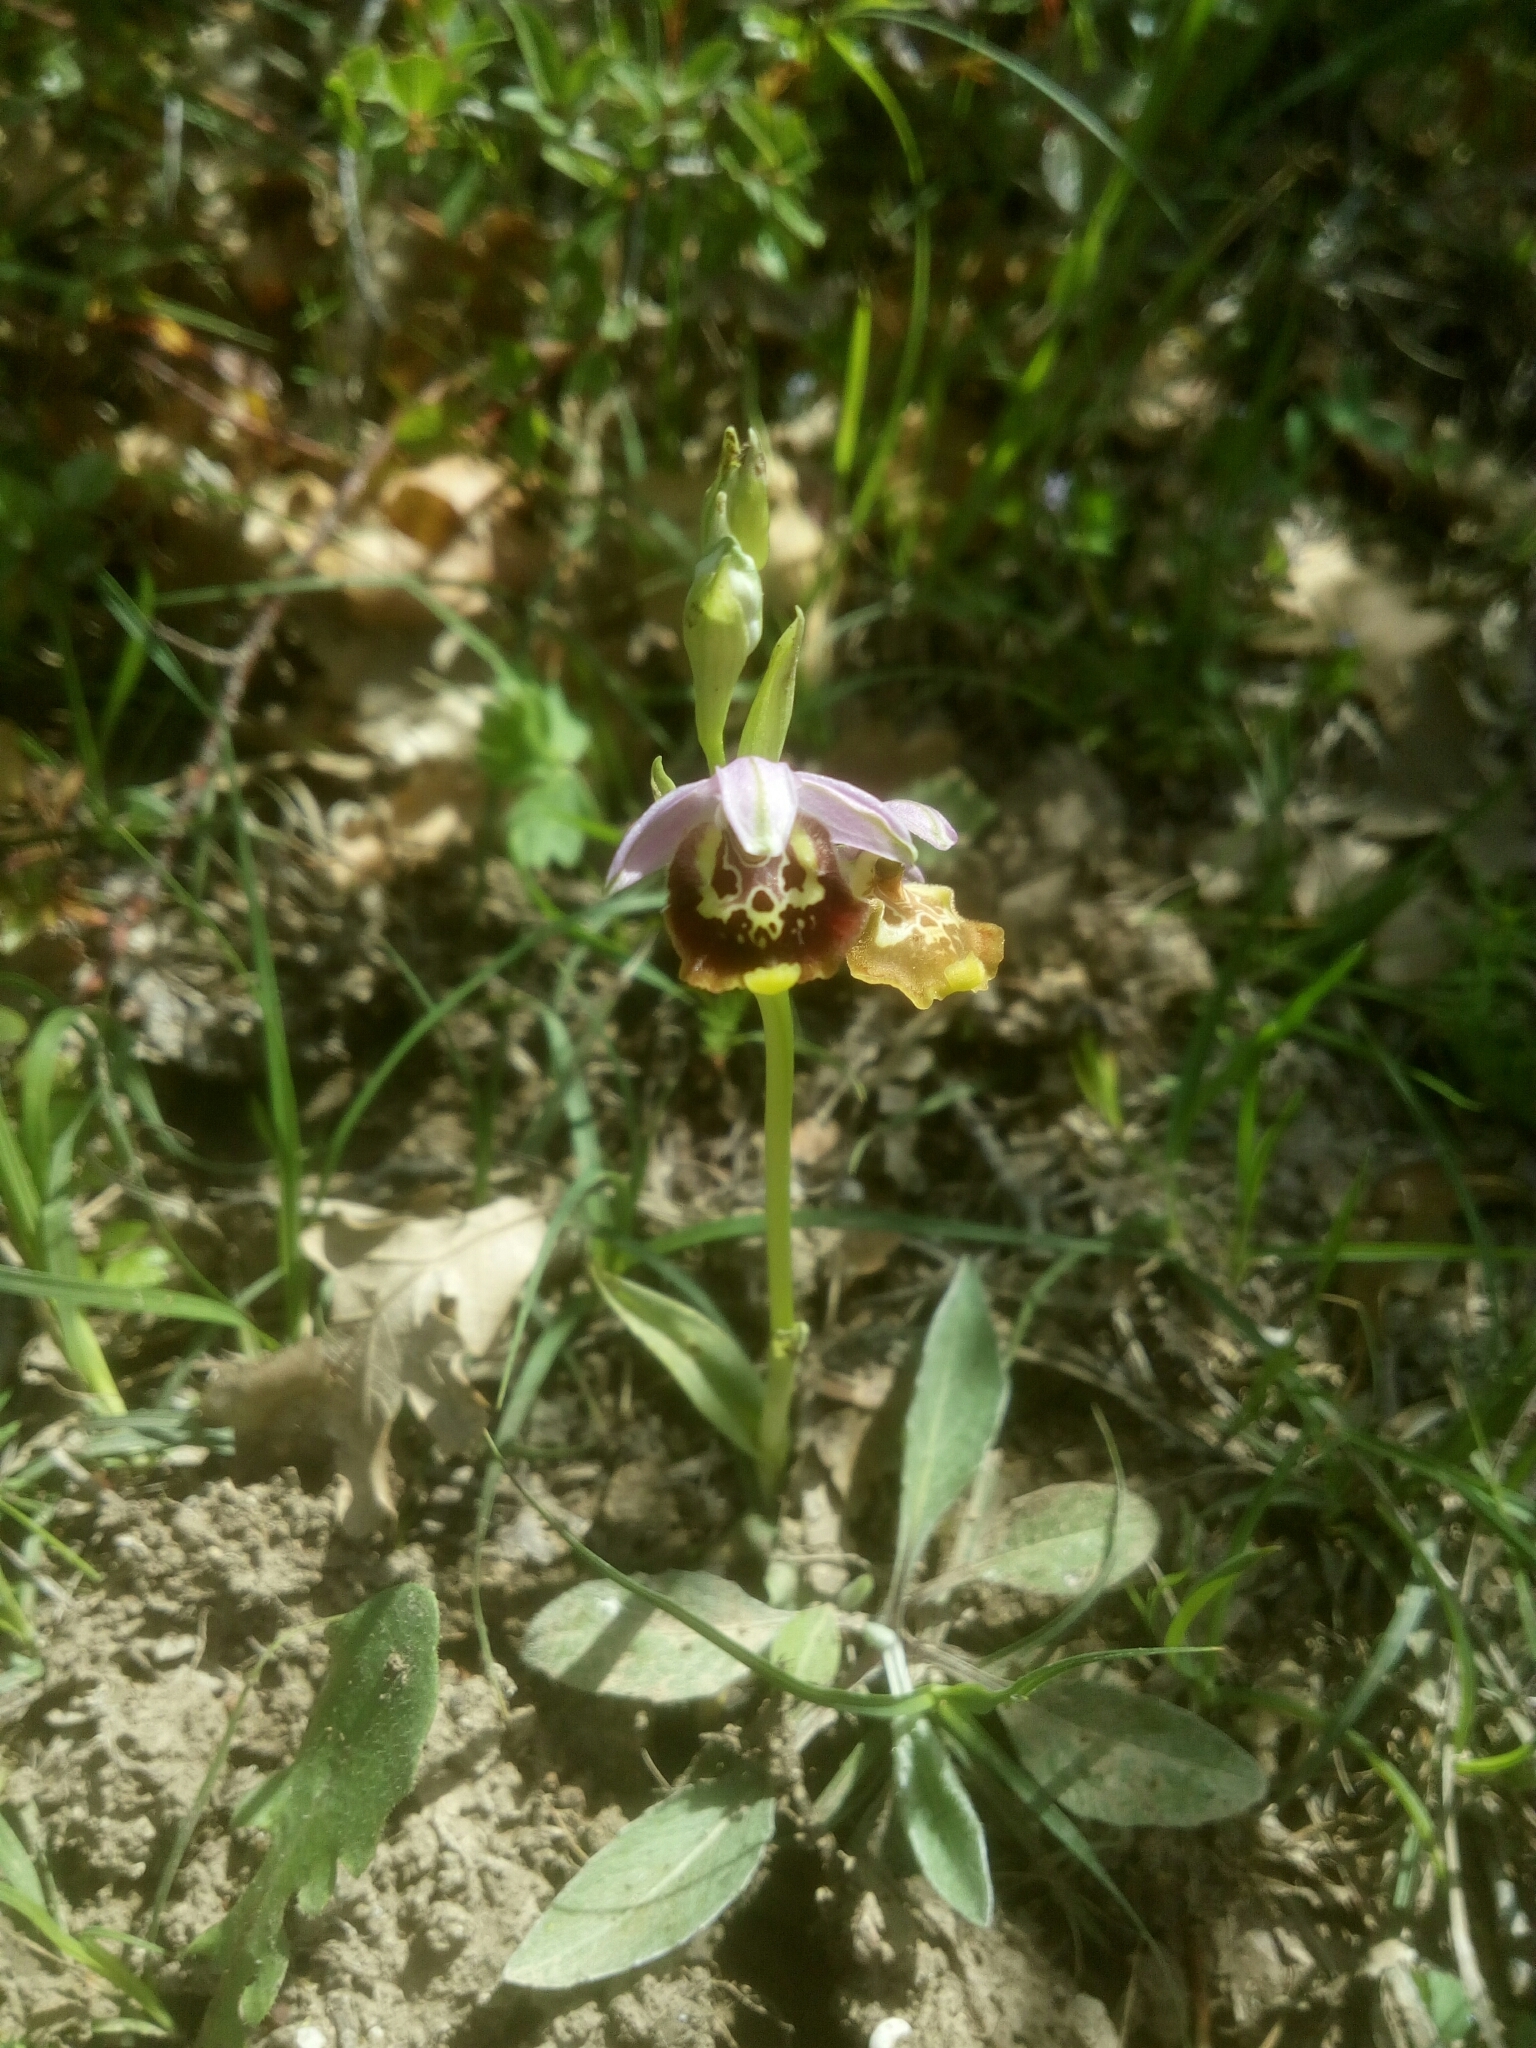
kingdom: Plantae
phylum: Tracheophyta
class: Liliopsida
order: Asparagales
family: Orchidaceae
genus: Ophrys
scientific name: Ophrys holosericea
